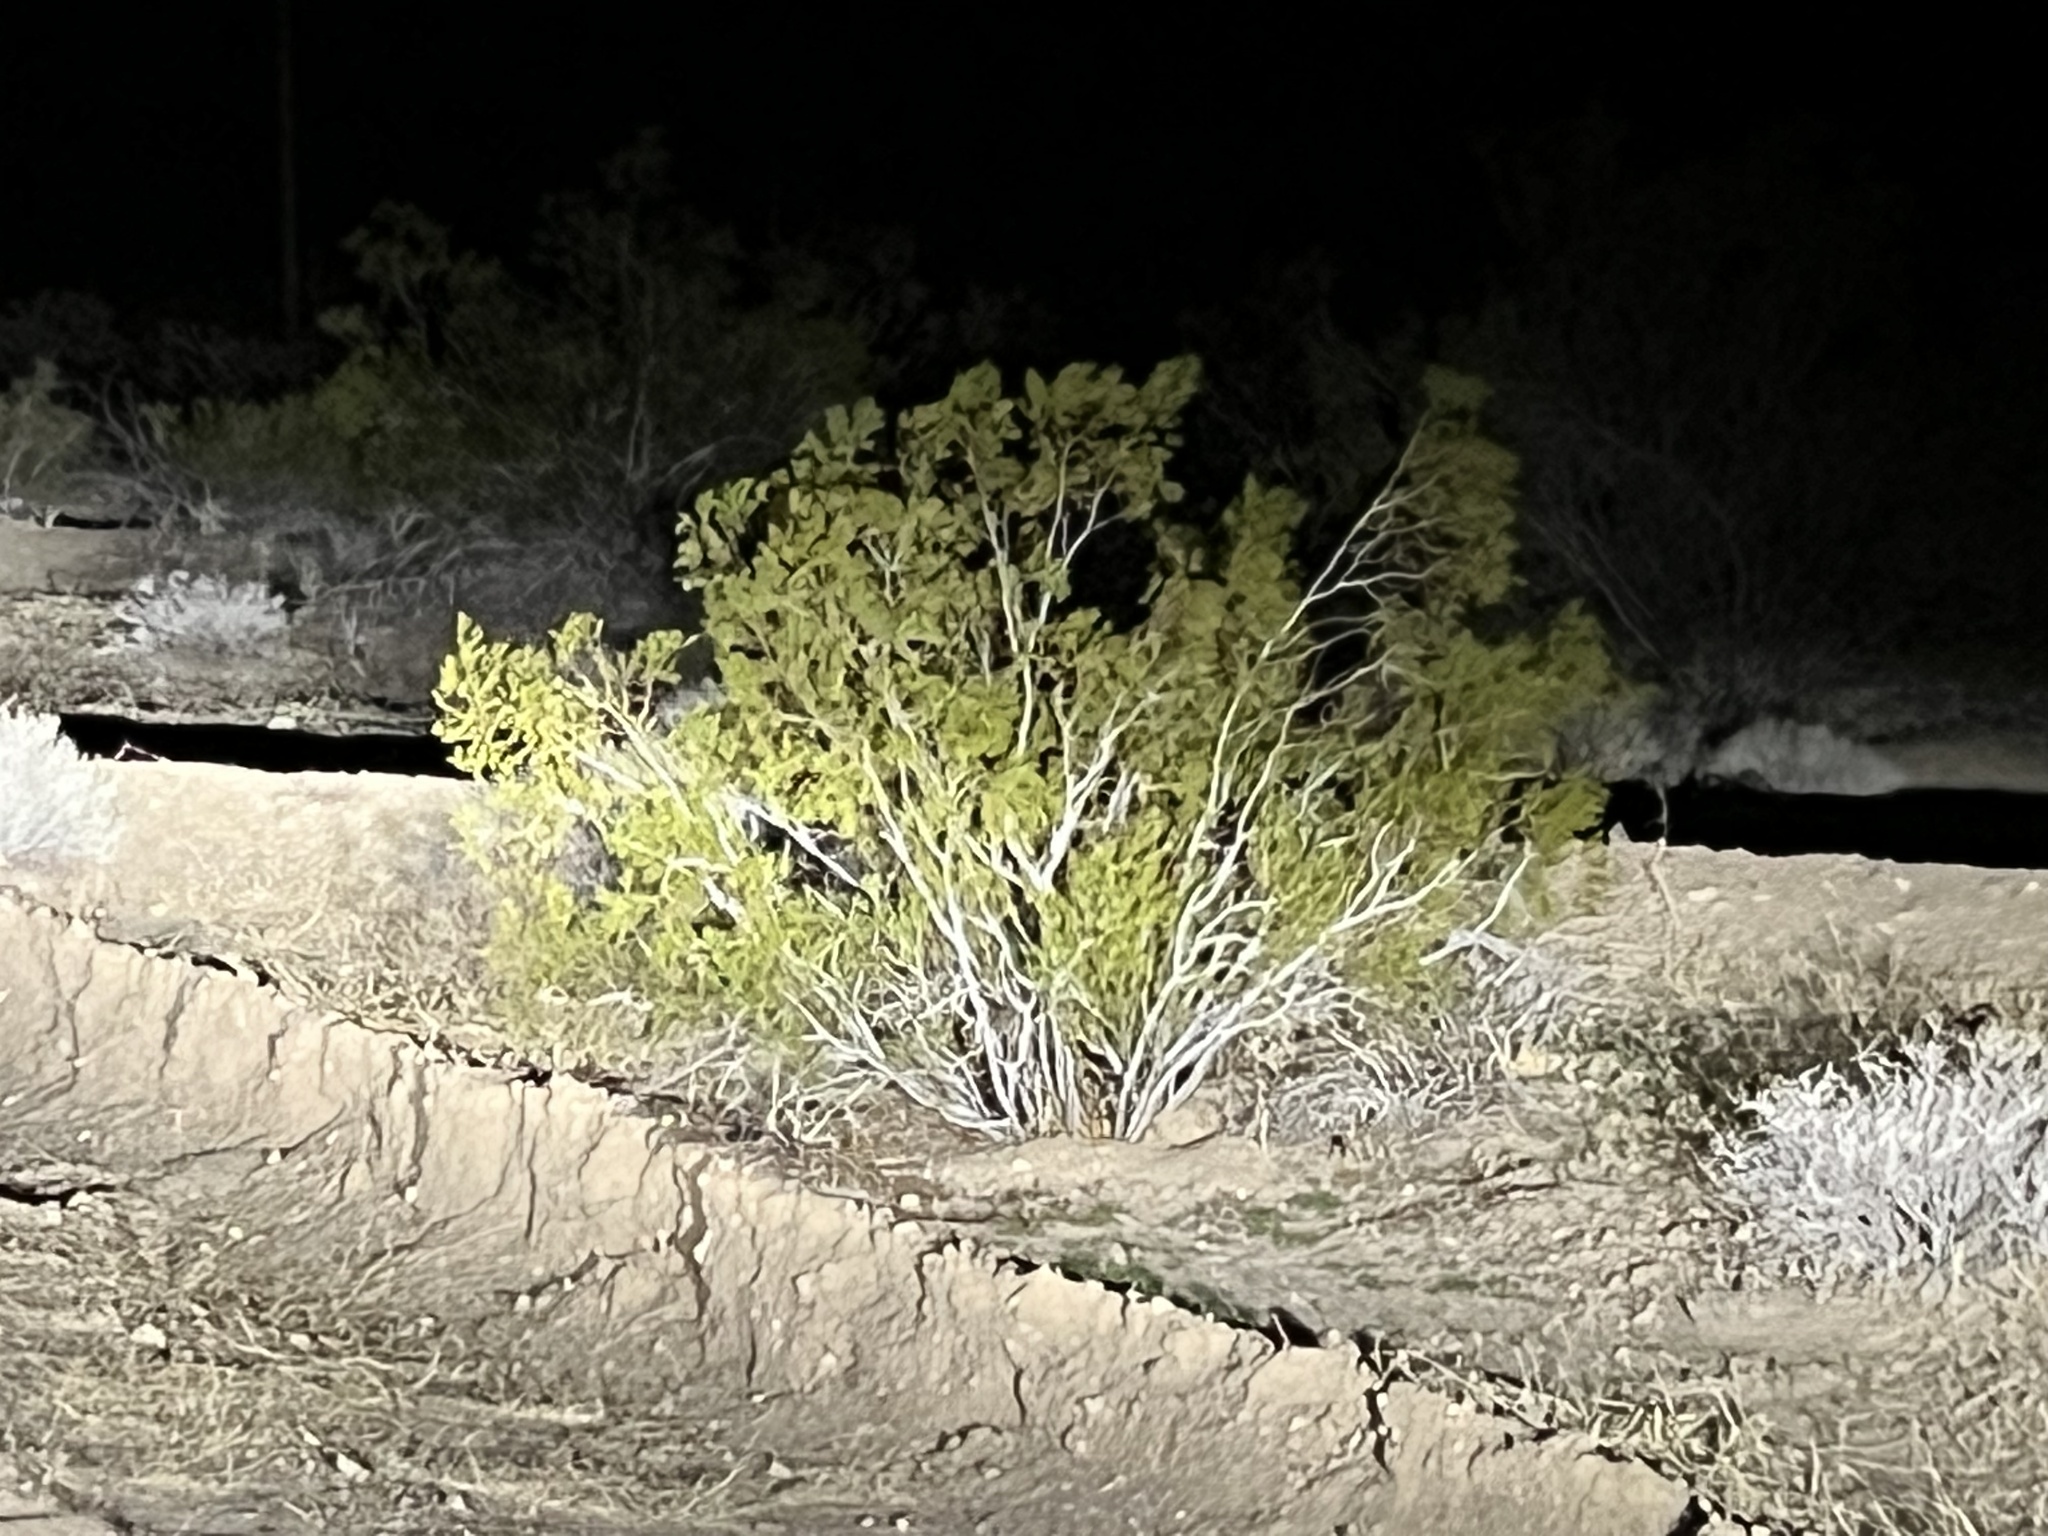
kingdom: Plantae
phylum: Tracheophyta
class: Magnoliopsida
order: Zygophyllales
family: Zygophyllaceae
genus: Larrea
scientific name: Larrea tridentata
